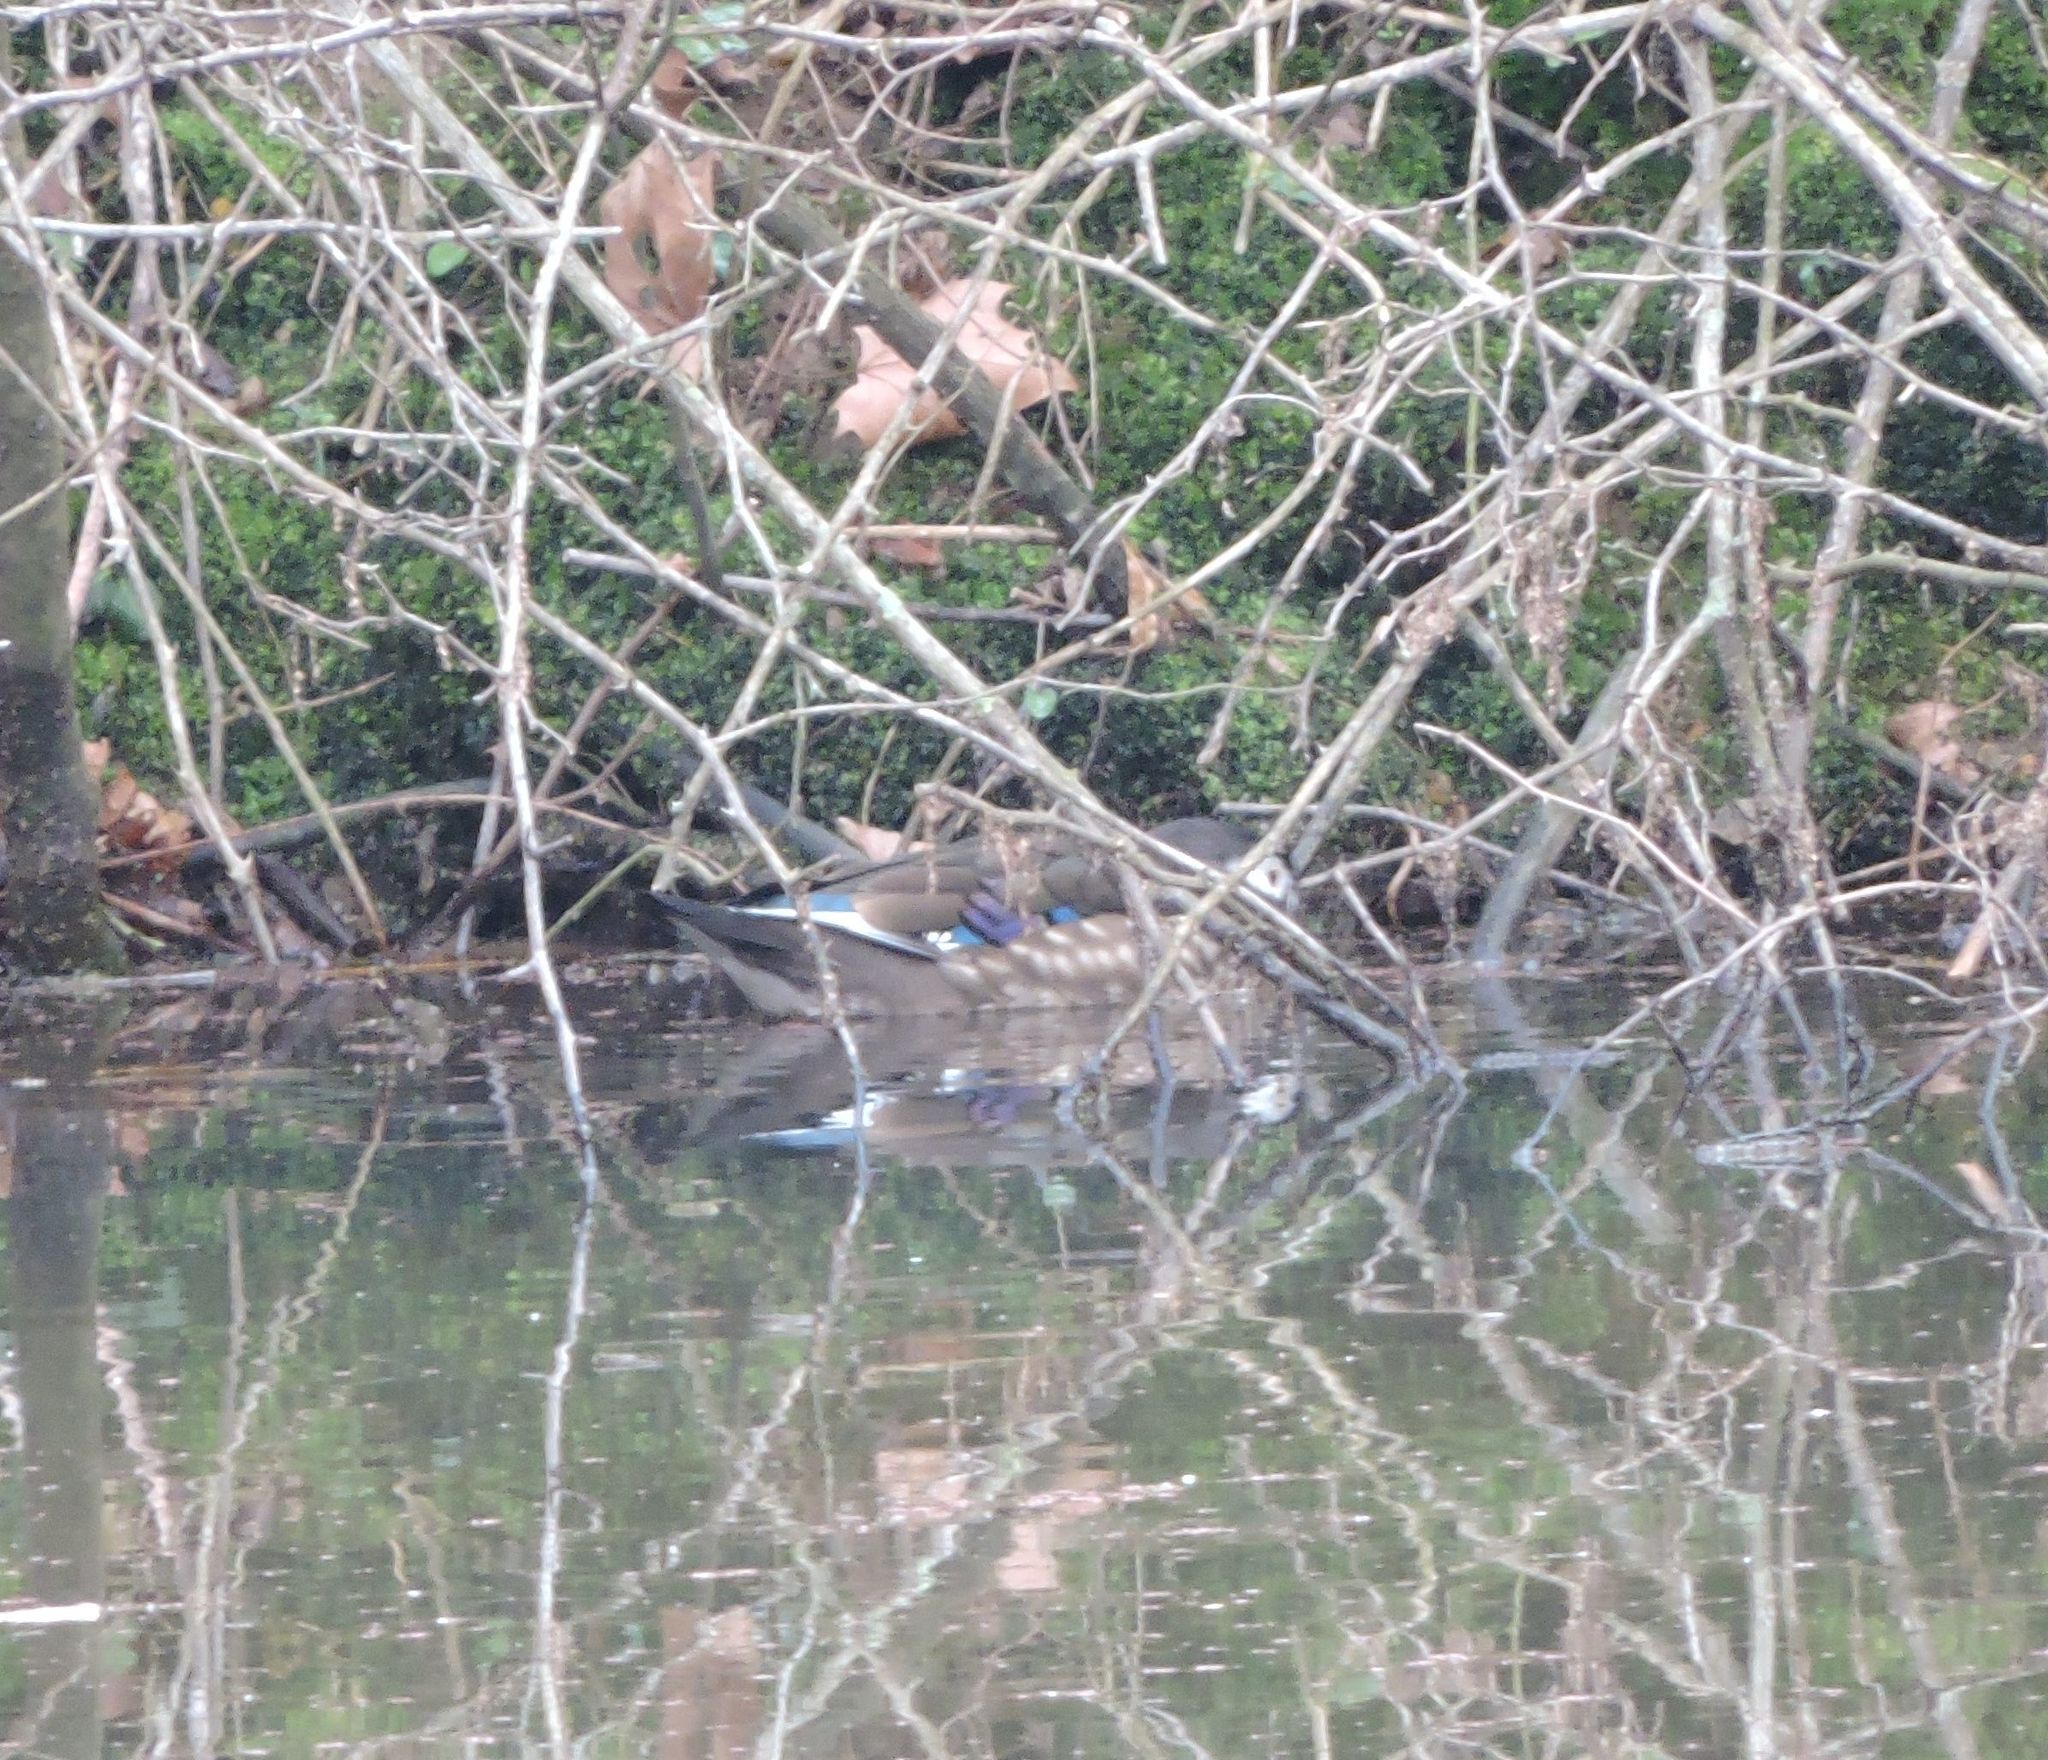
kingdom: Animalia
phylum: Chordata
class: Aves
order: Anseriformes
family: Anatidae
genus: Aix
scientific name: Aix sponsa
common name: Wood duck
